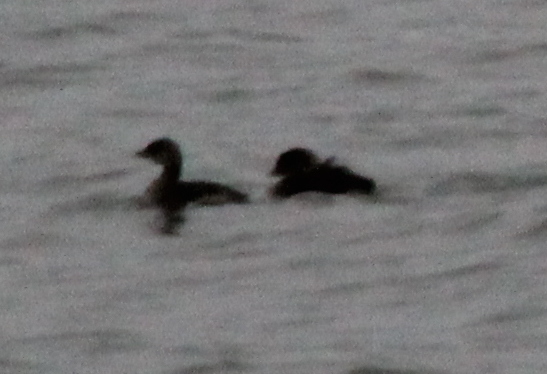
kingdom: Animalia
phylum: Chordata
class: Aves
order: Podicipediformes
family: Podicipedidae
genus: Podilymbus
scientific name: Podilymbus podiceps
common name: Pied-billed grebe
